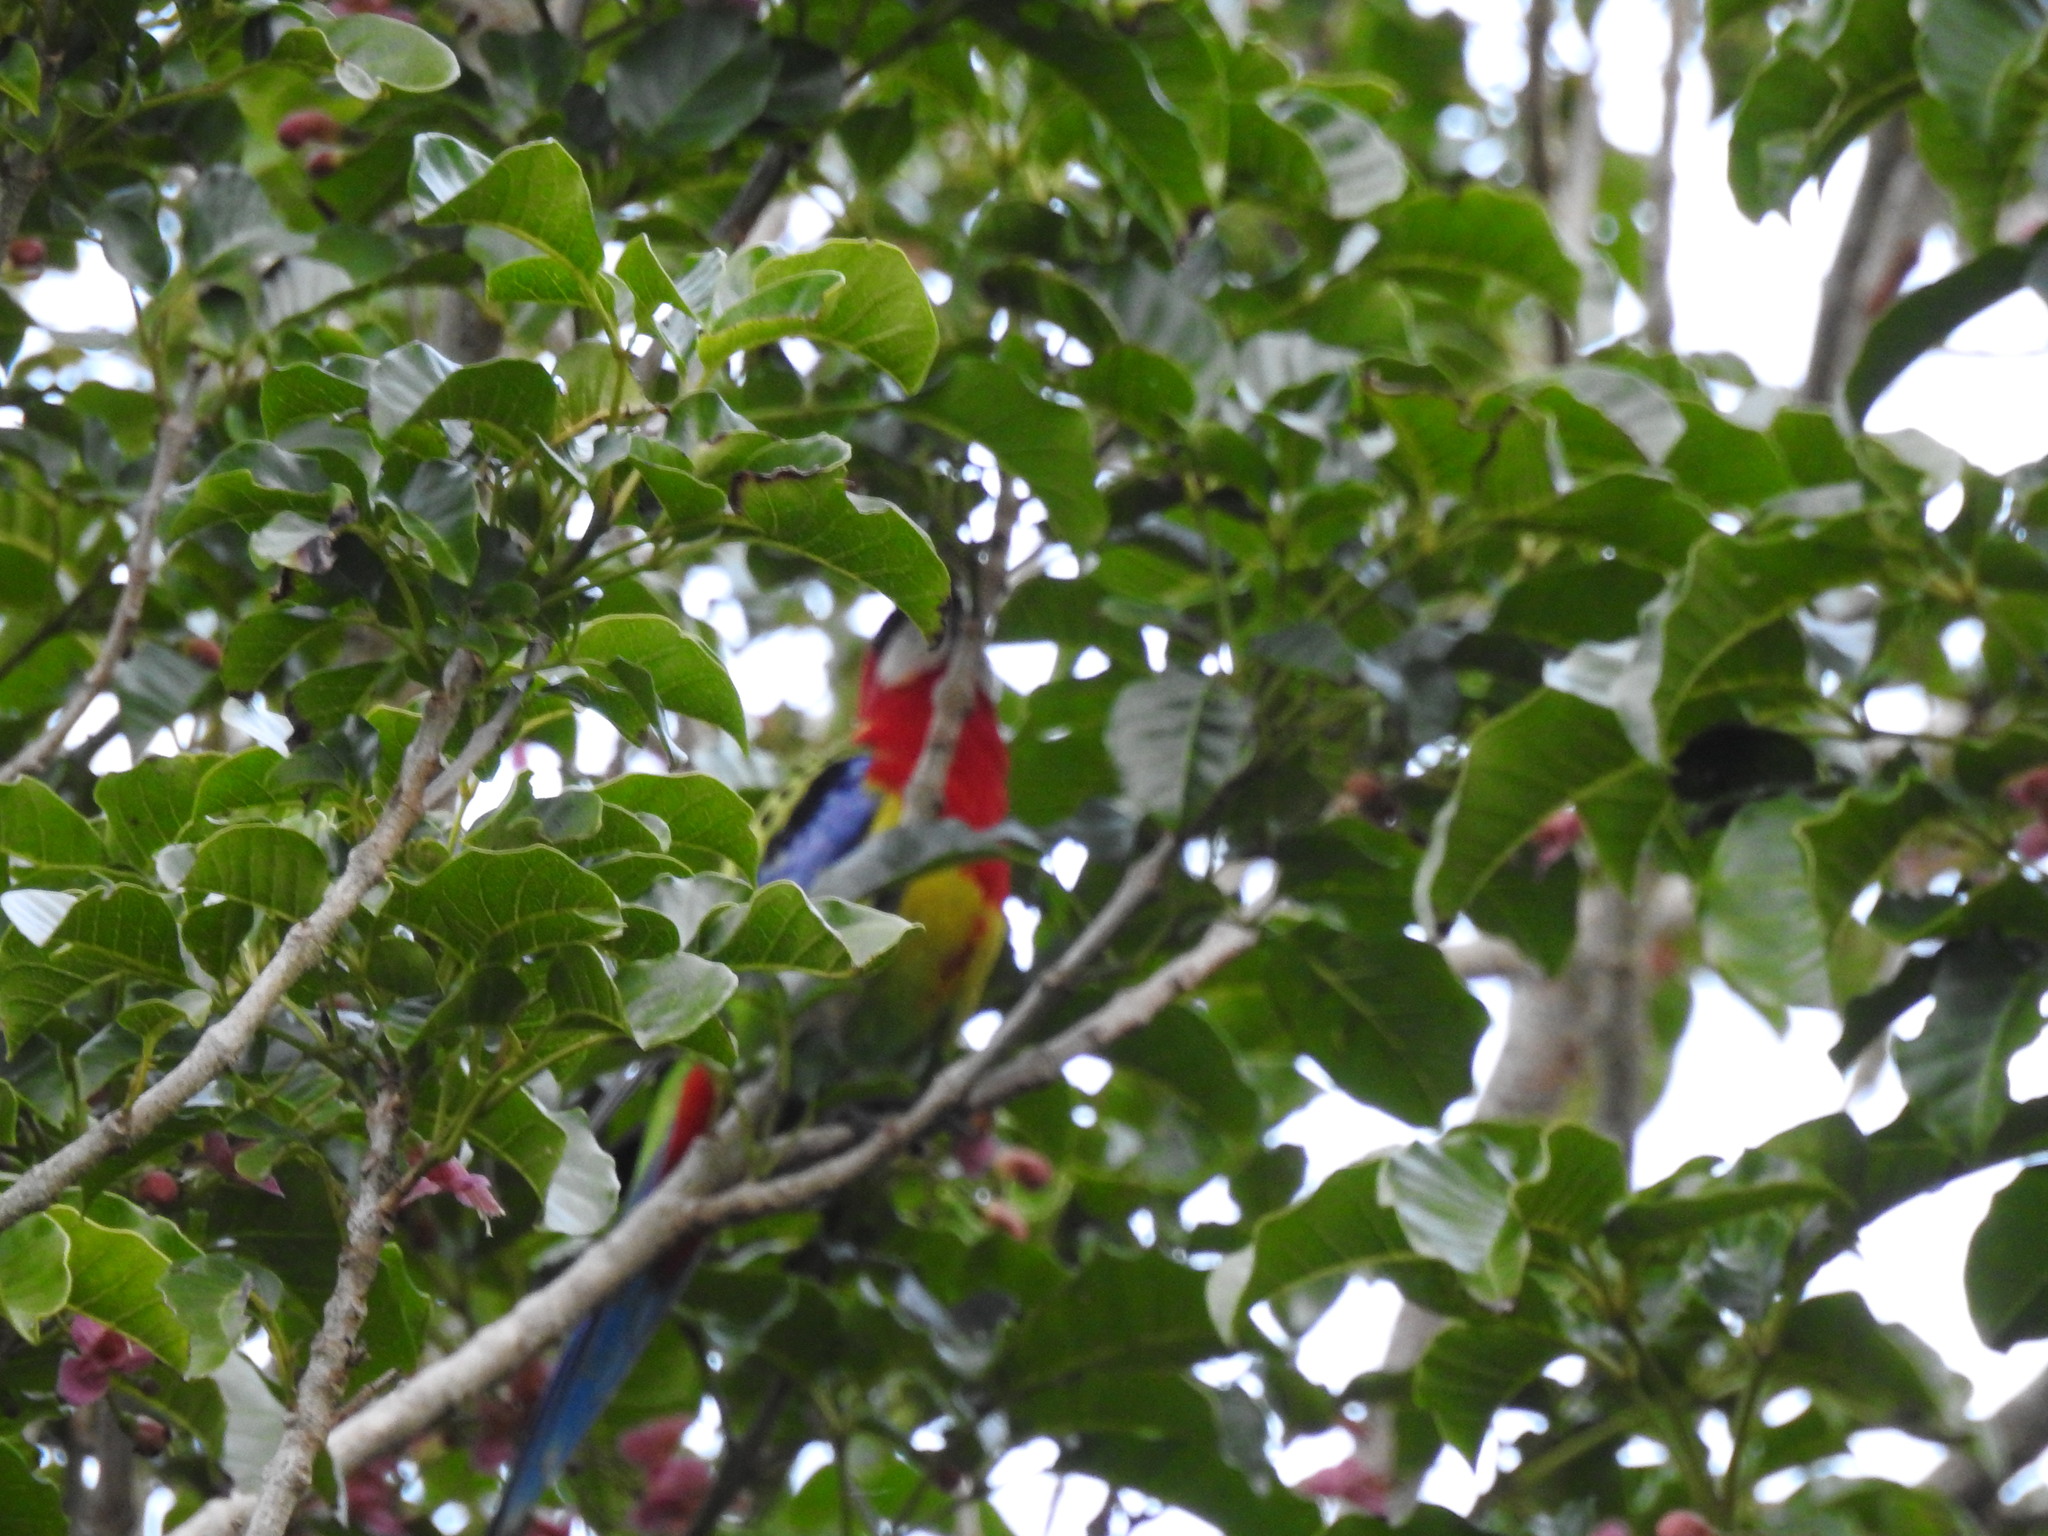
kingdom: Animalia
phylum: Chordata
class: Aves
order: Psittaciformes
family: Psittacidae
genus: Platycercus
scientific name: Platycercus eximius
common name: Eastern rosella
